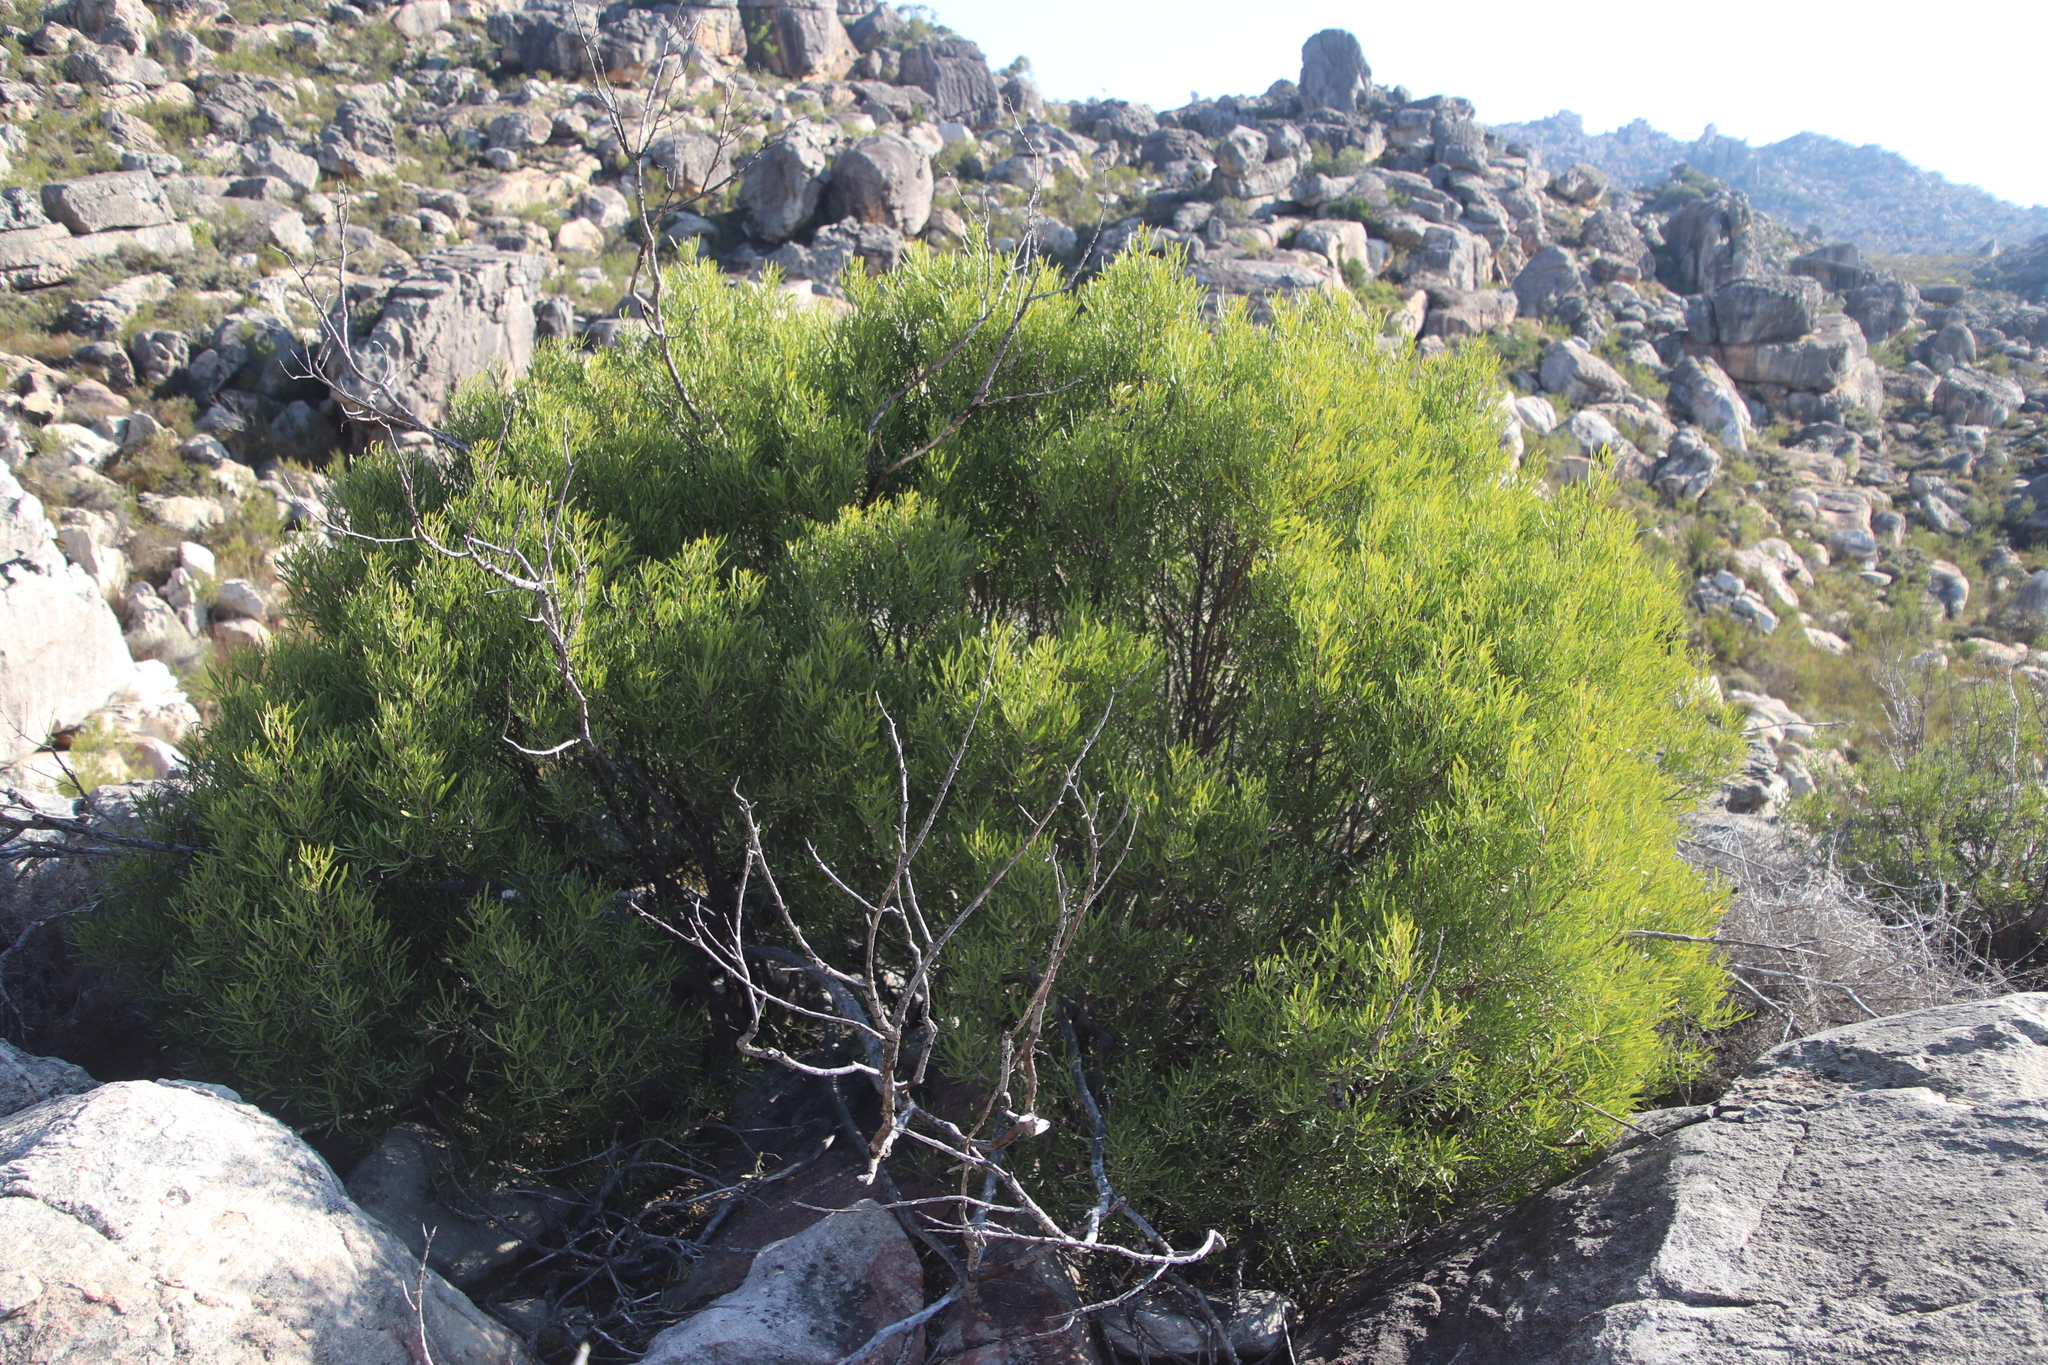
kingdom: Plantae
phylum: Tracheophyta
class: Magnoliopsida
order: Sapindales
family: Anacardiaceae
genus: Searsia
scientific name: Searsia rimosa
